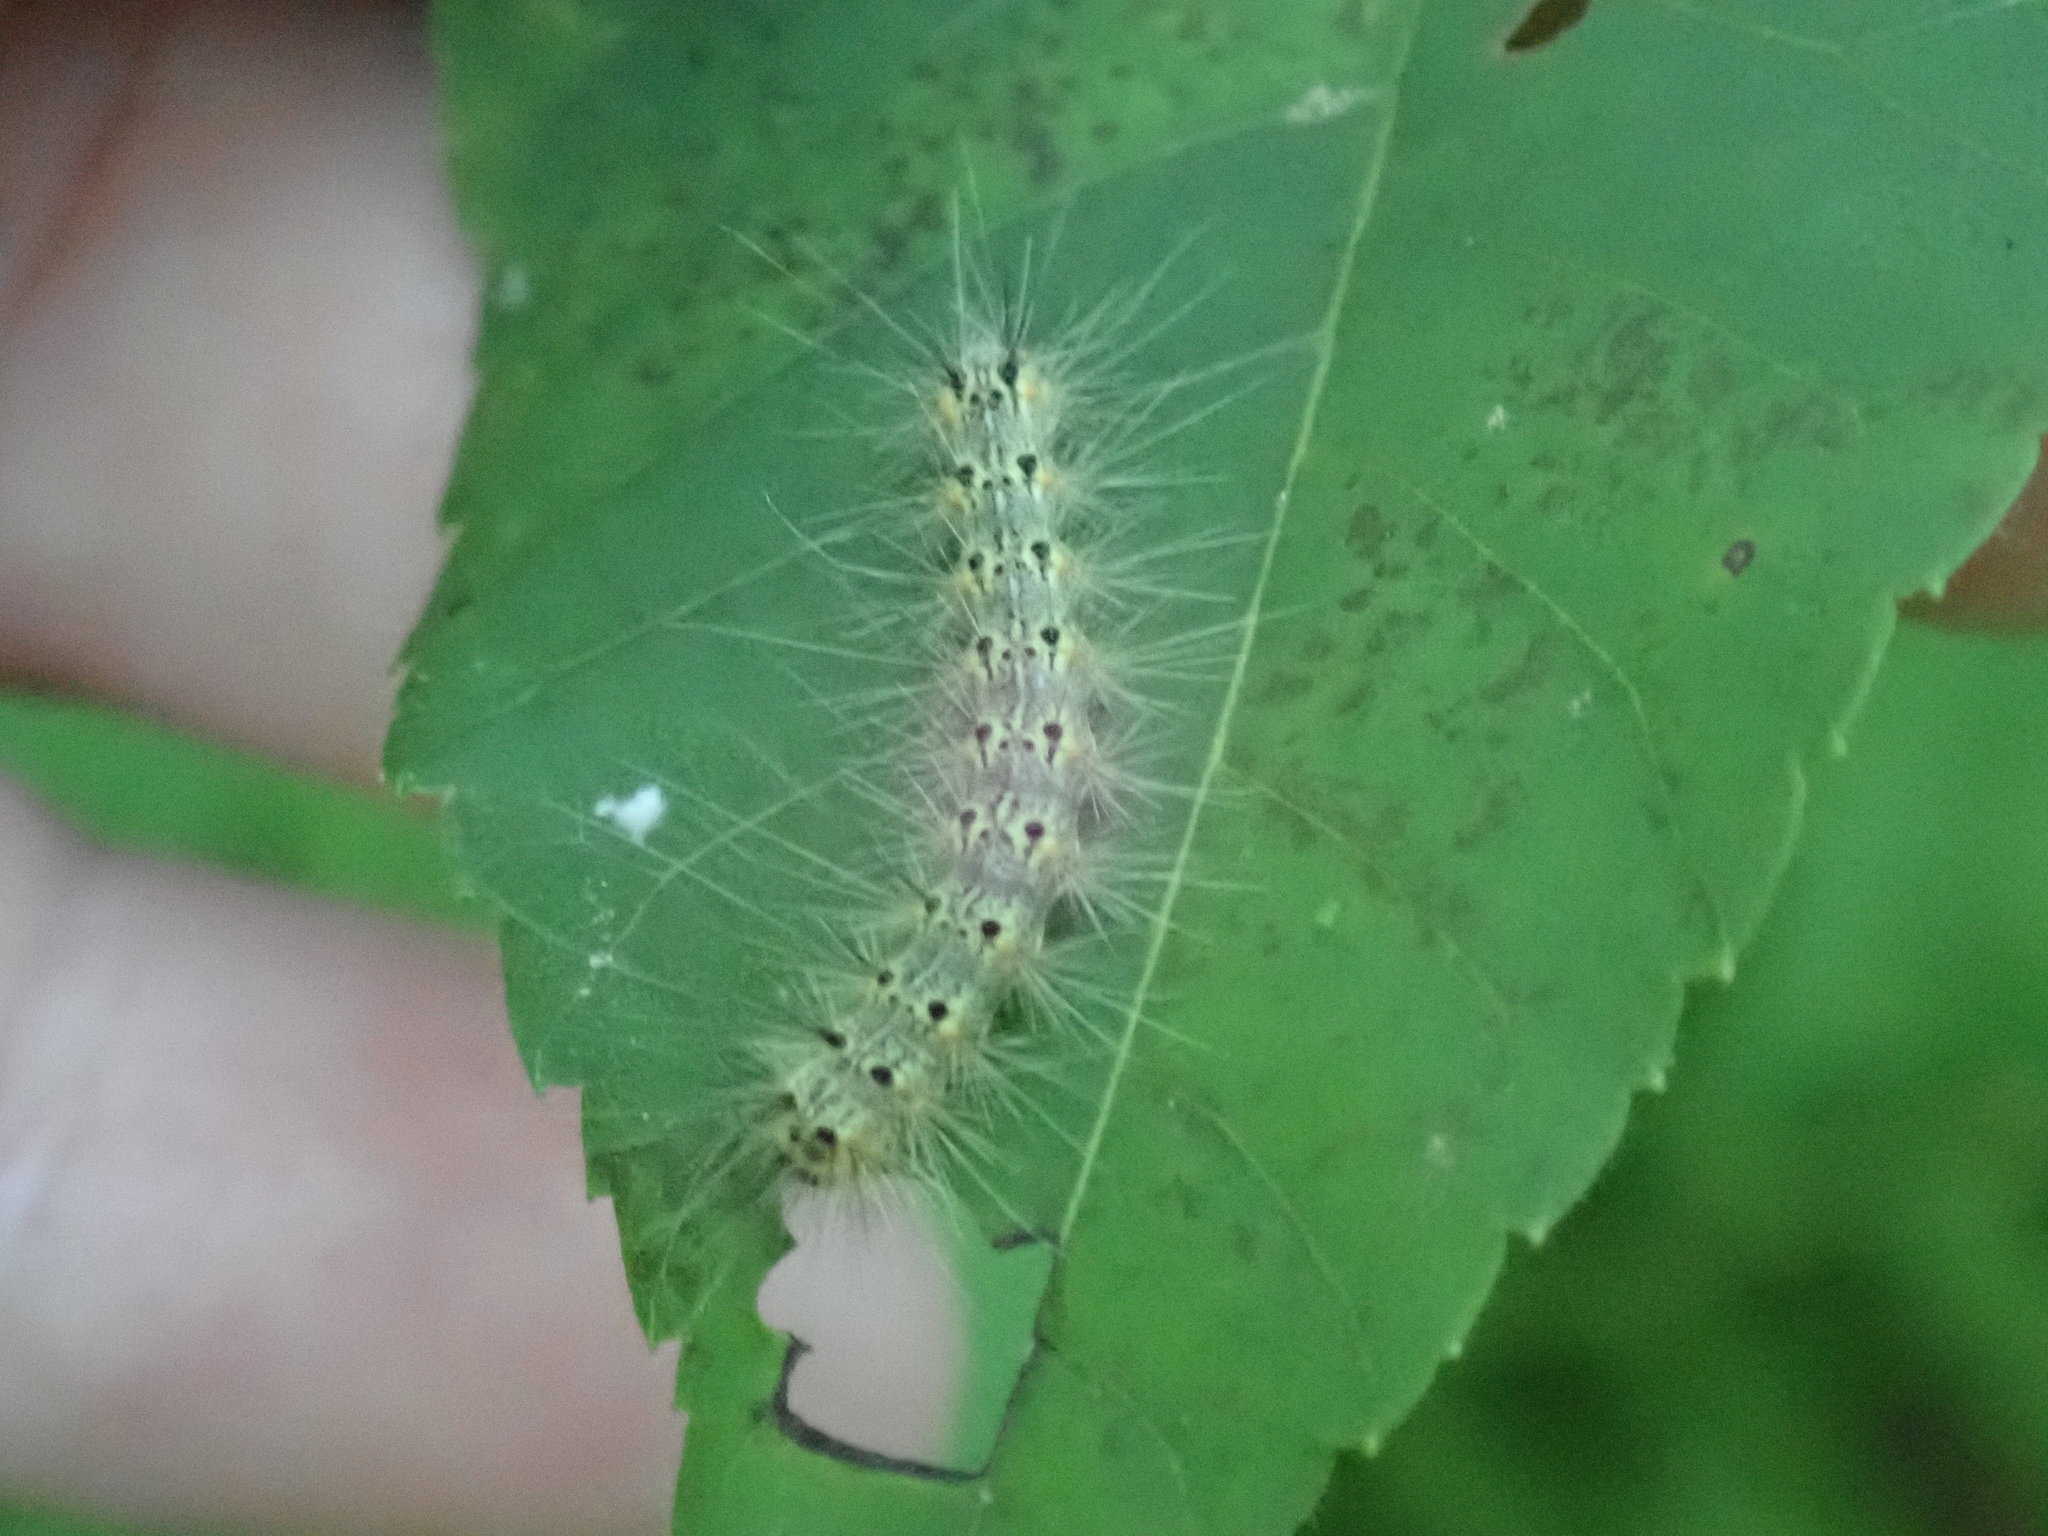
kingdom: Animalia
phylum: Arthropoda
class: Insecta
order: Lepidoptera
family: Erebidae
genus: Hyphantria
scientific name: Hyphantria cunea
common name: American white moth
